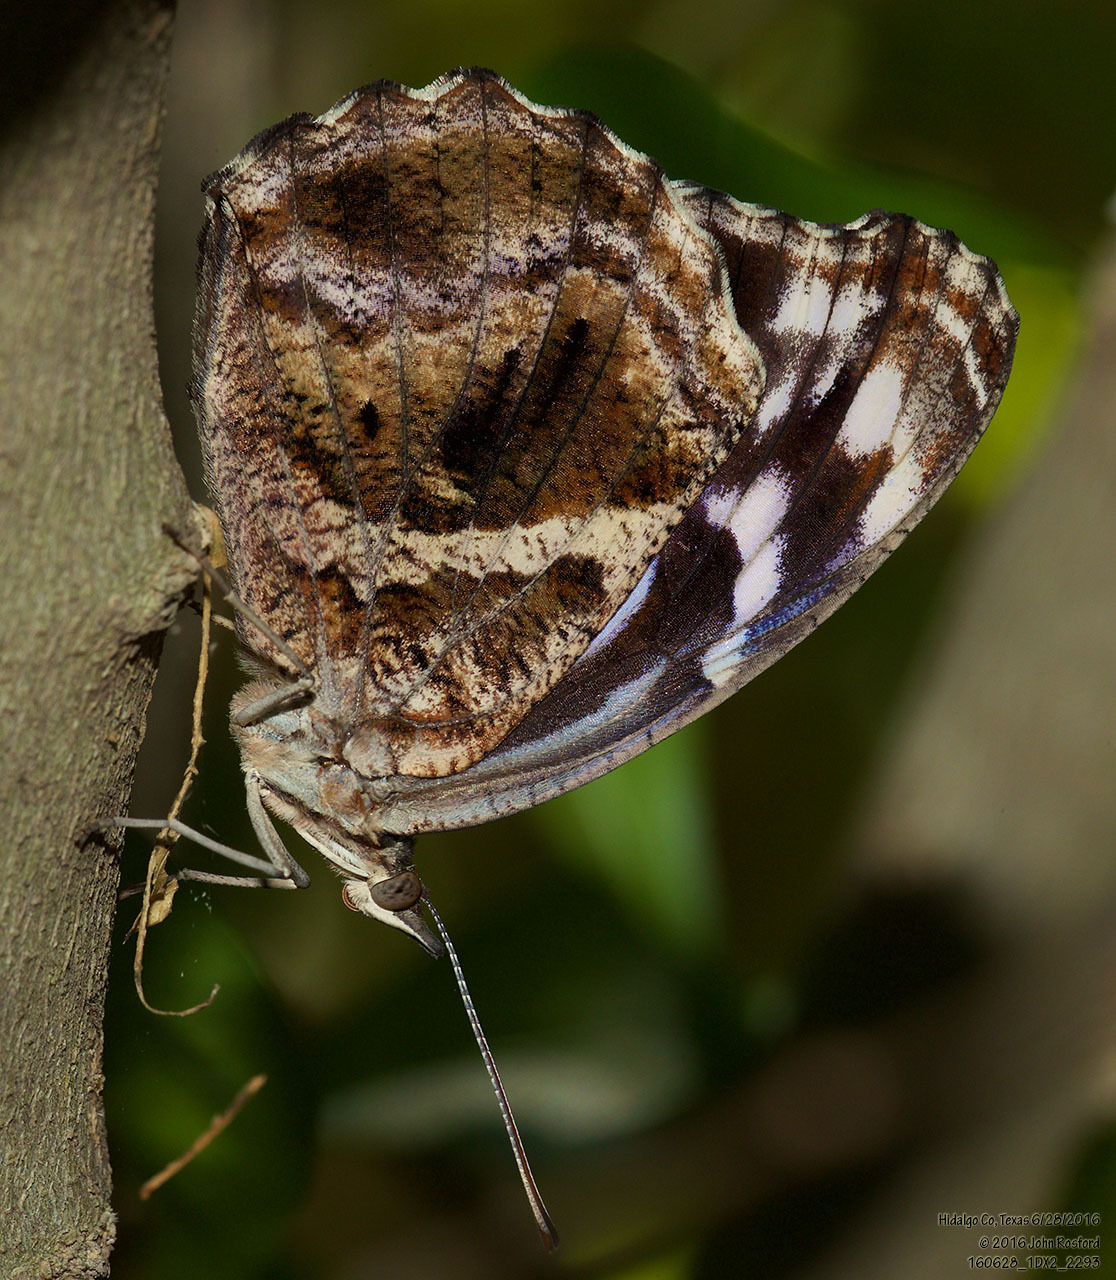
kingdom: Animalia
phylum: Arthropoda
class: Insecta
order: Lepidoptera
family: Nymphalidae
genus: Myscelia
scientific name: Myscelia ethusa
